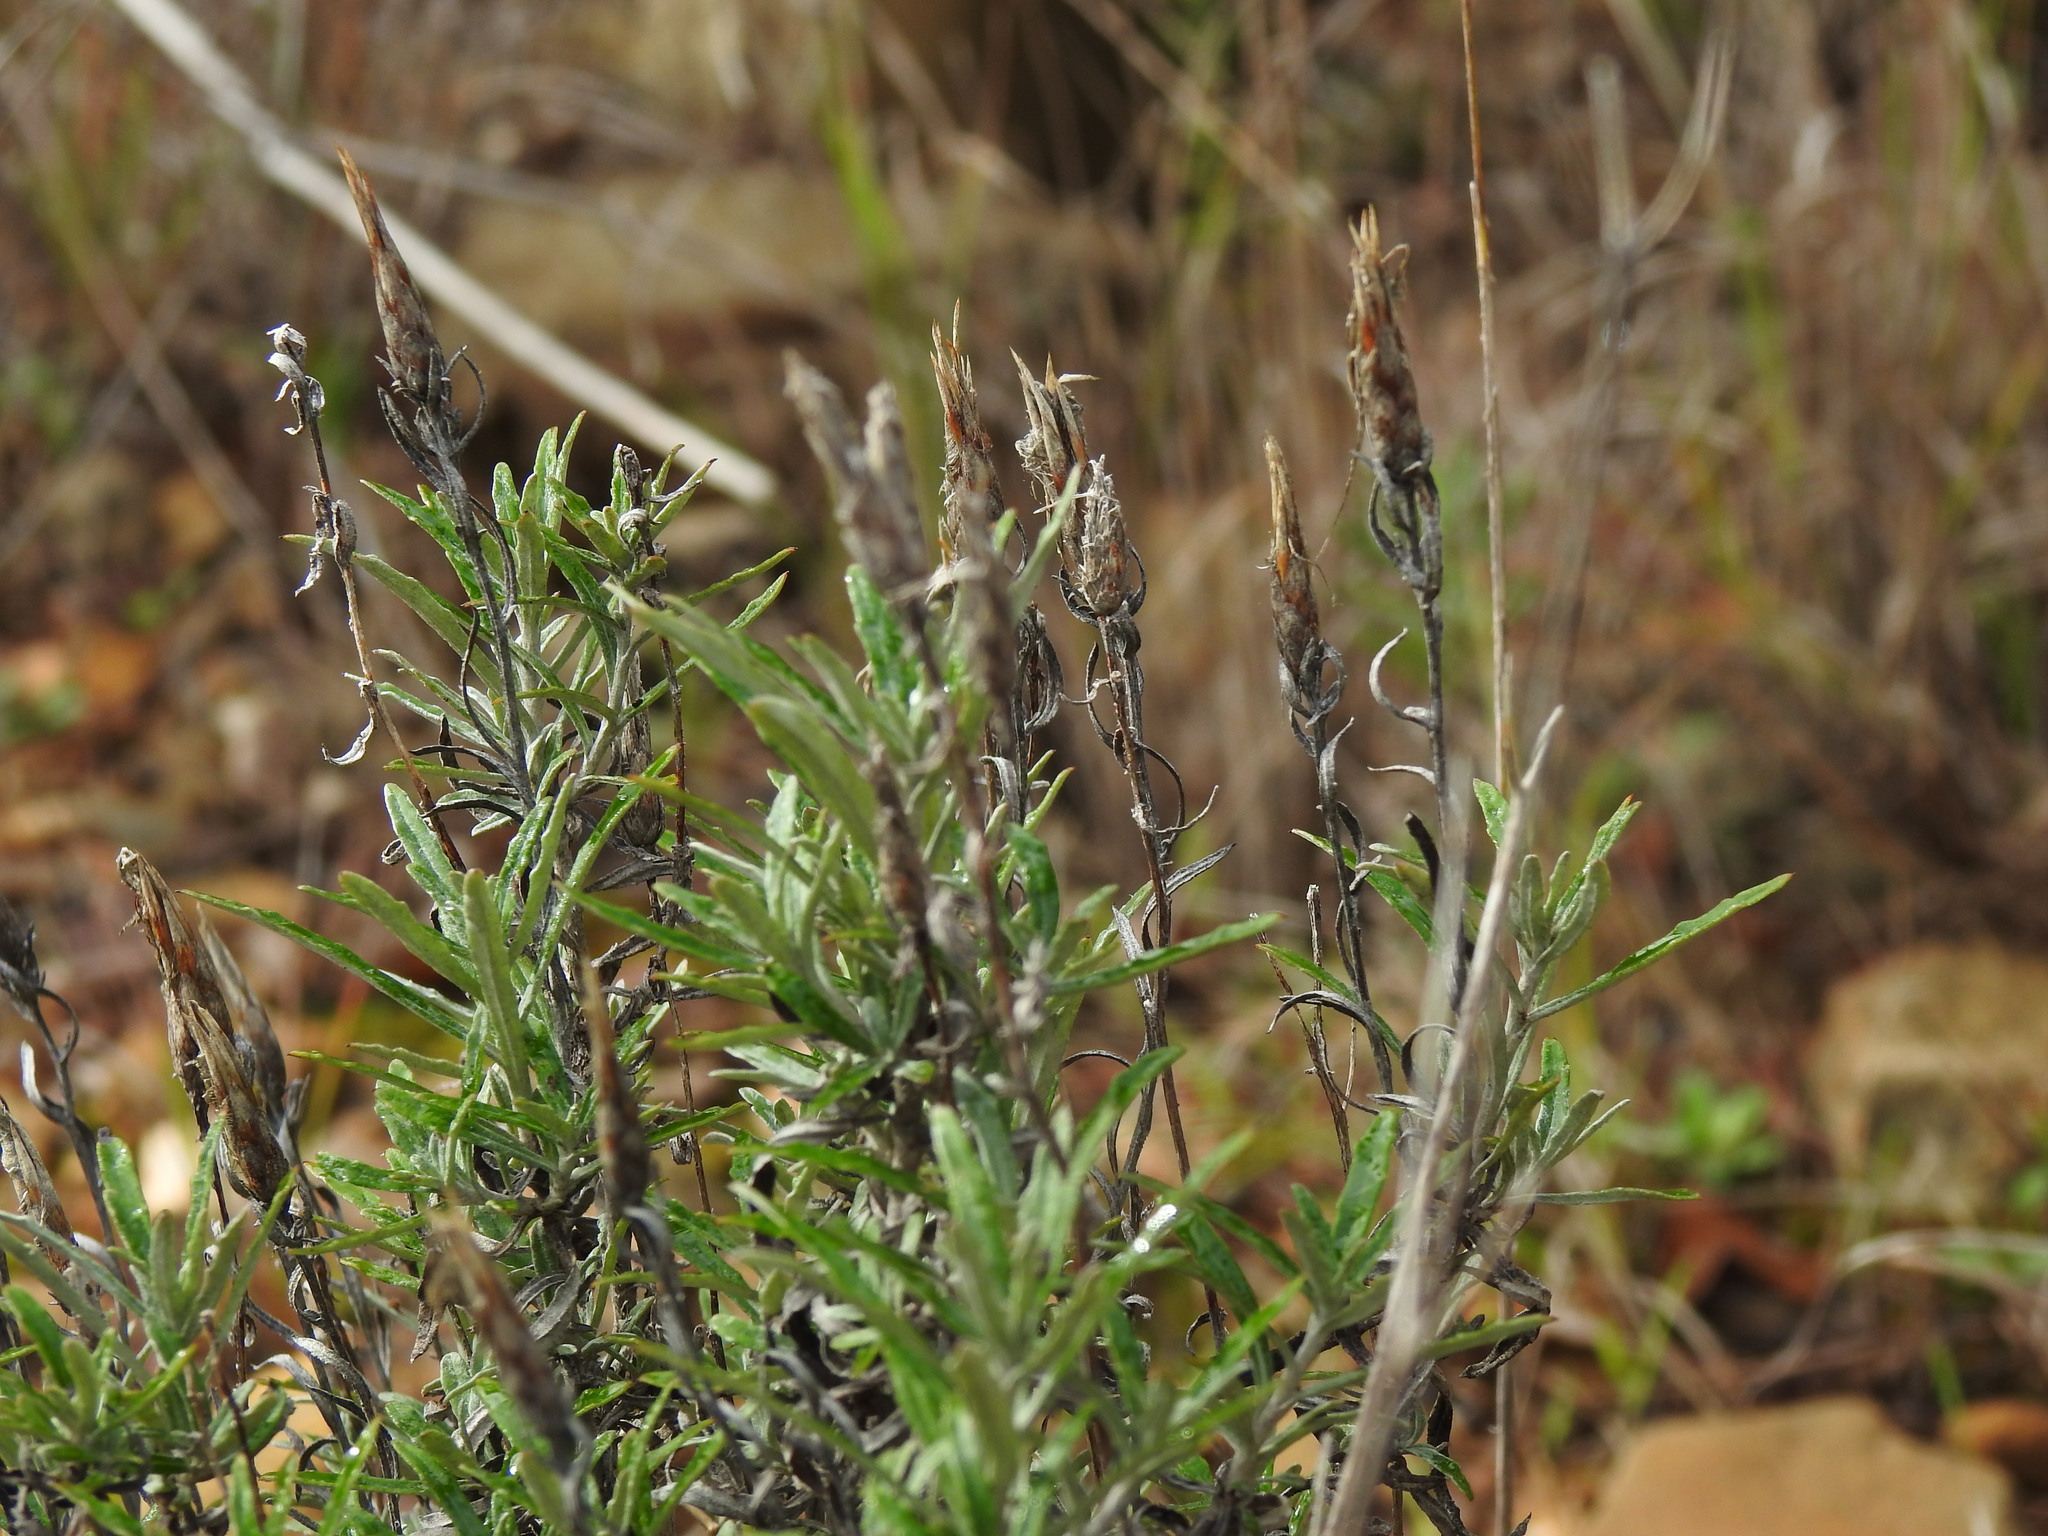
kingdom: Plantae
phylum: Tracheophyta
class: Magnoliopsida
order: Asterales
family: Asteraceae
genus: Staehelina
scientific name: Staehelina dubia
